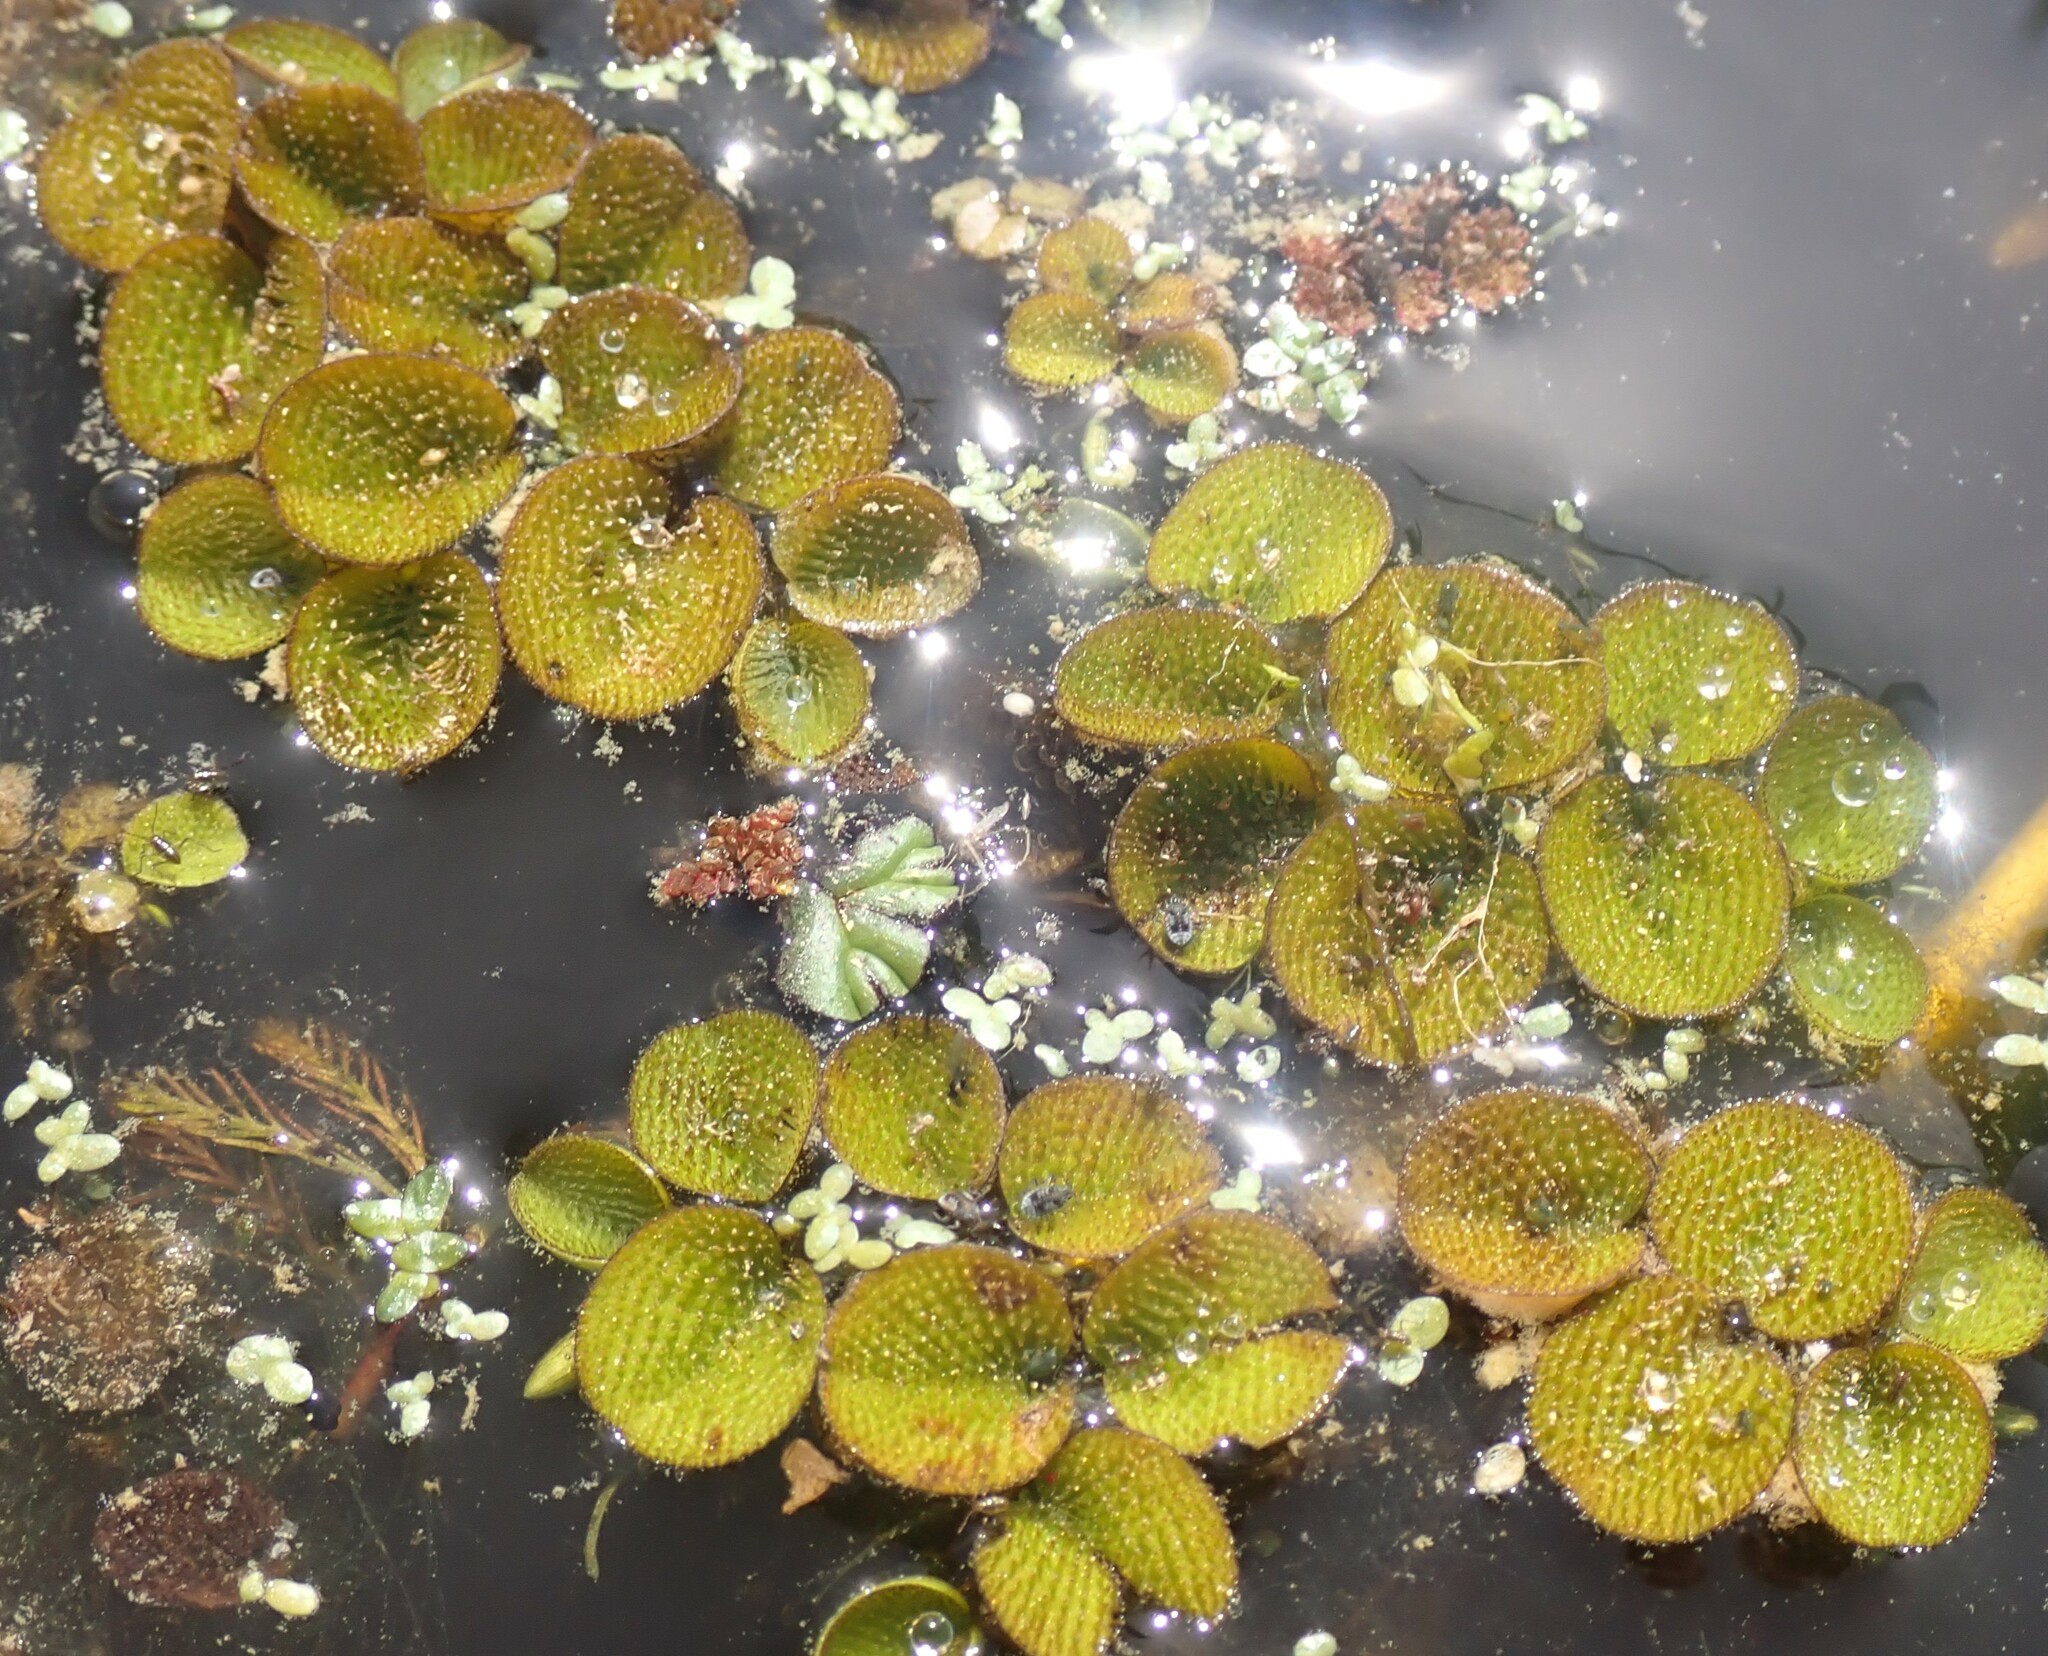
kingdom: Plantae
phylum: Tracheophyta
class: Polypodiopsida
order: Salviniales
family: Salviniaceae
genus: Salvinia
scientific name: Salvinia minima
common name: Water spangles
